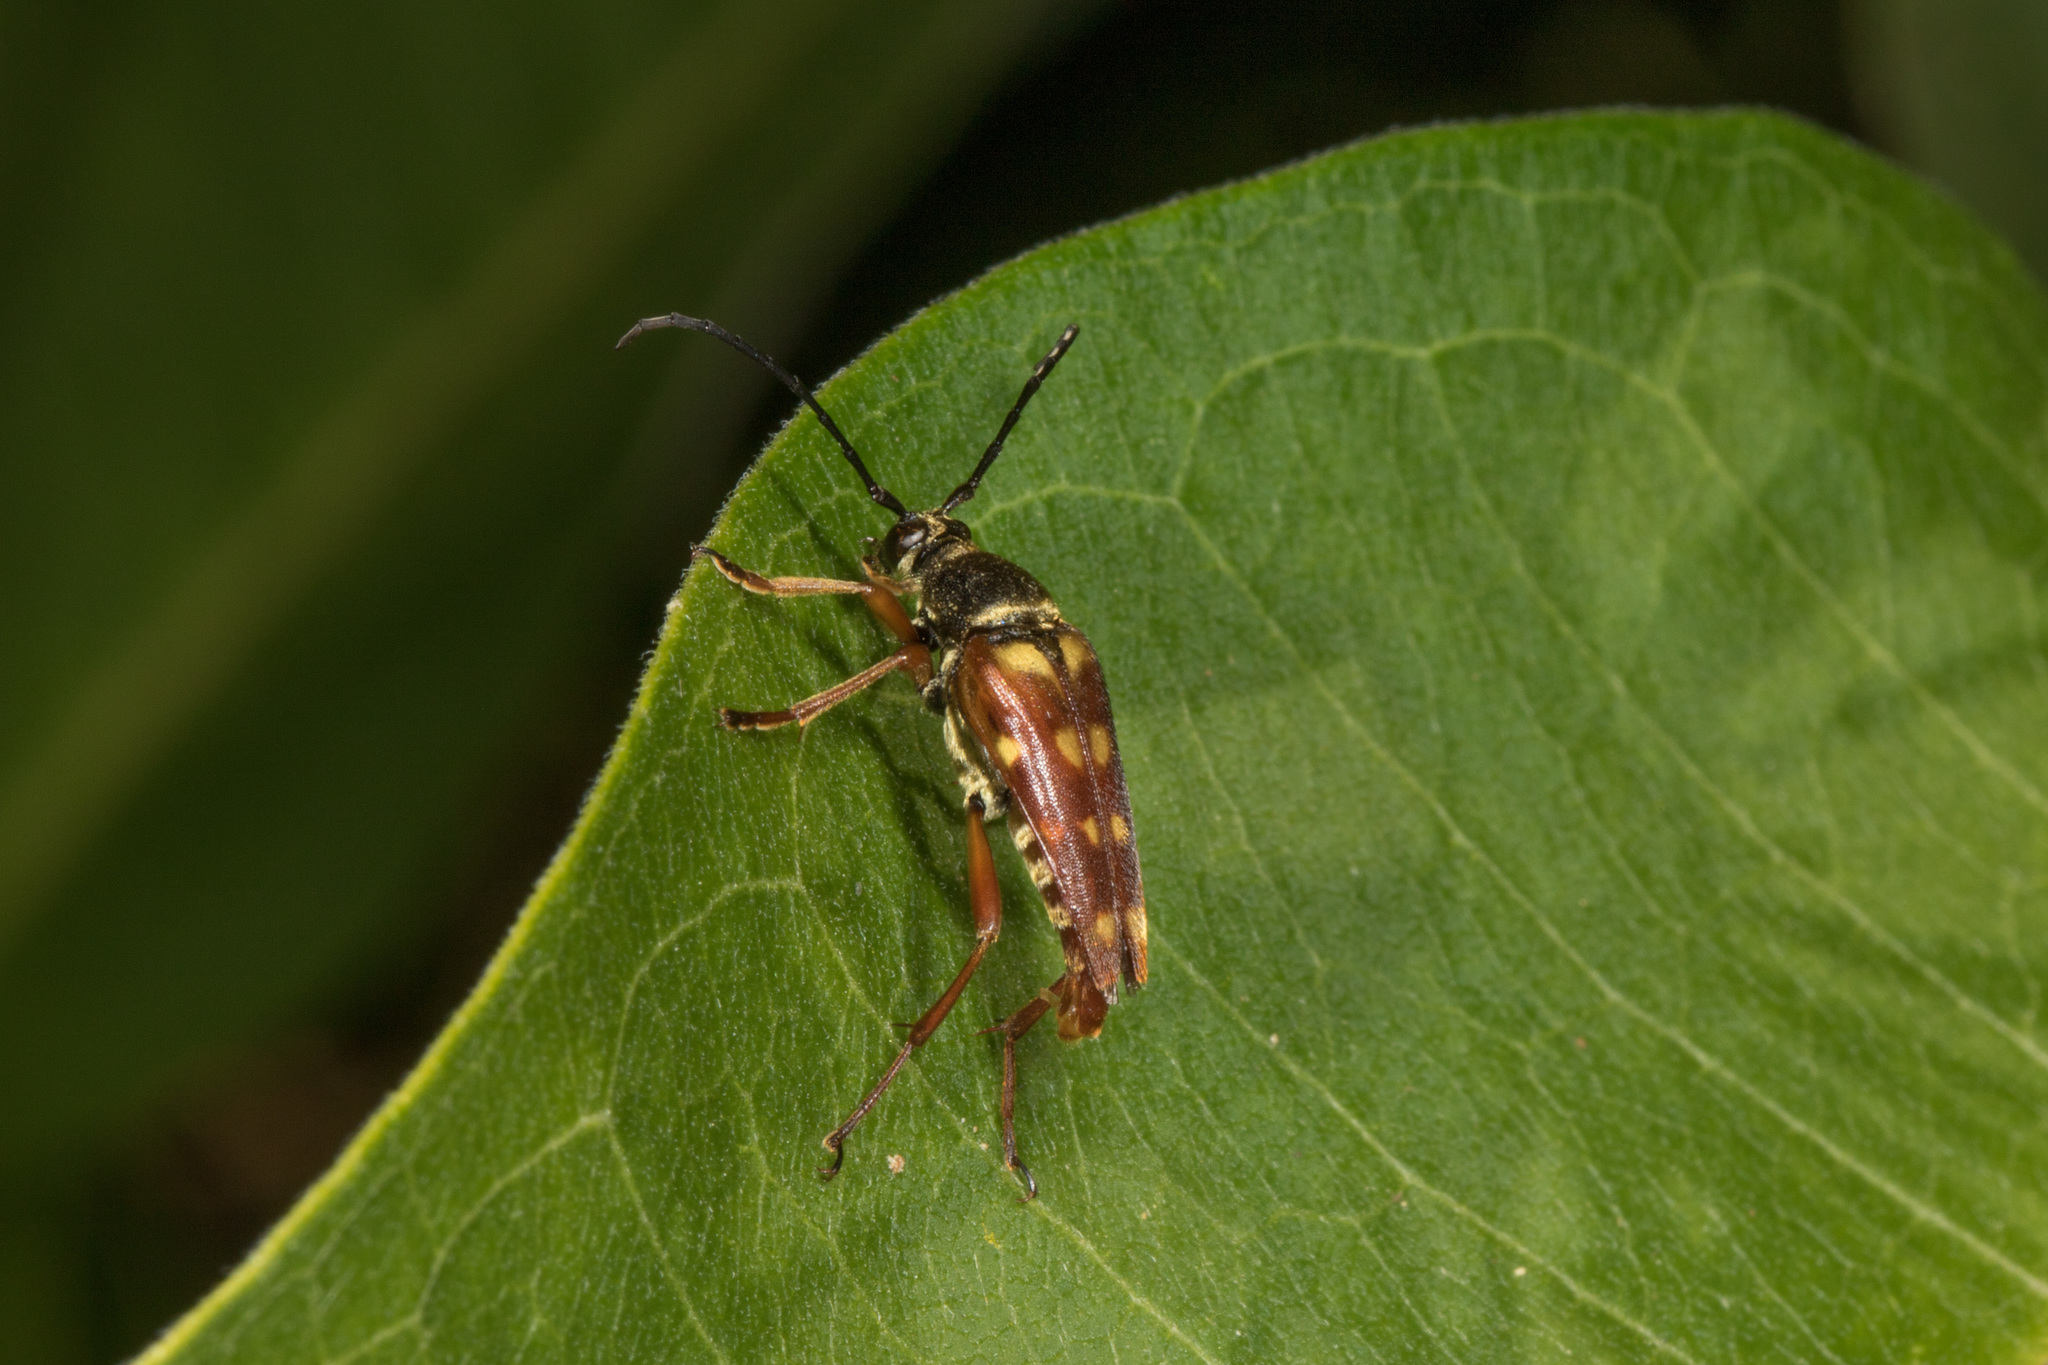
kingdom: Animalia
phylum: Arthropoda
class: Insecta
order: Coleoptera
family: Cerambycidae
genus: Typocerus
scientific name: Typocerus velutinus
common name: Banded longhorn beetle
